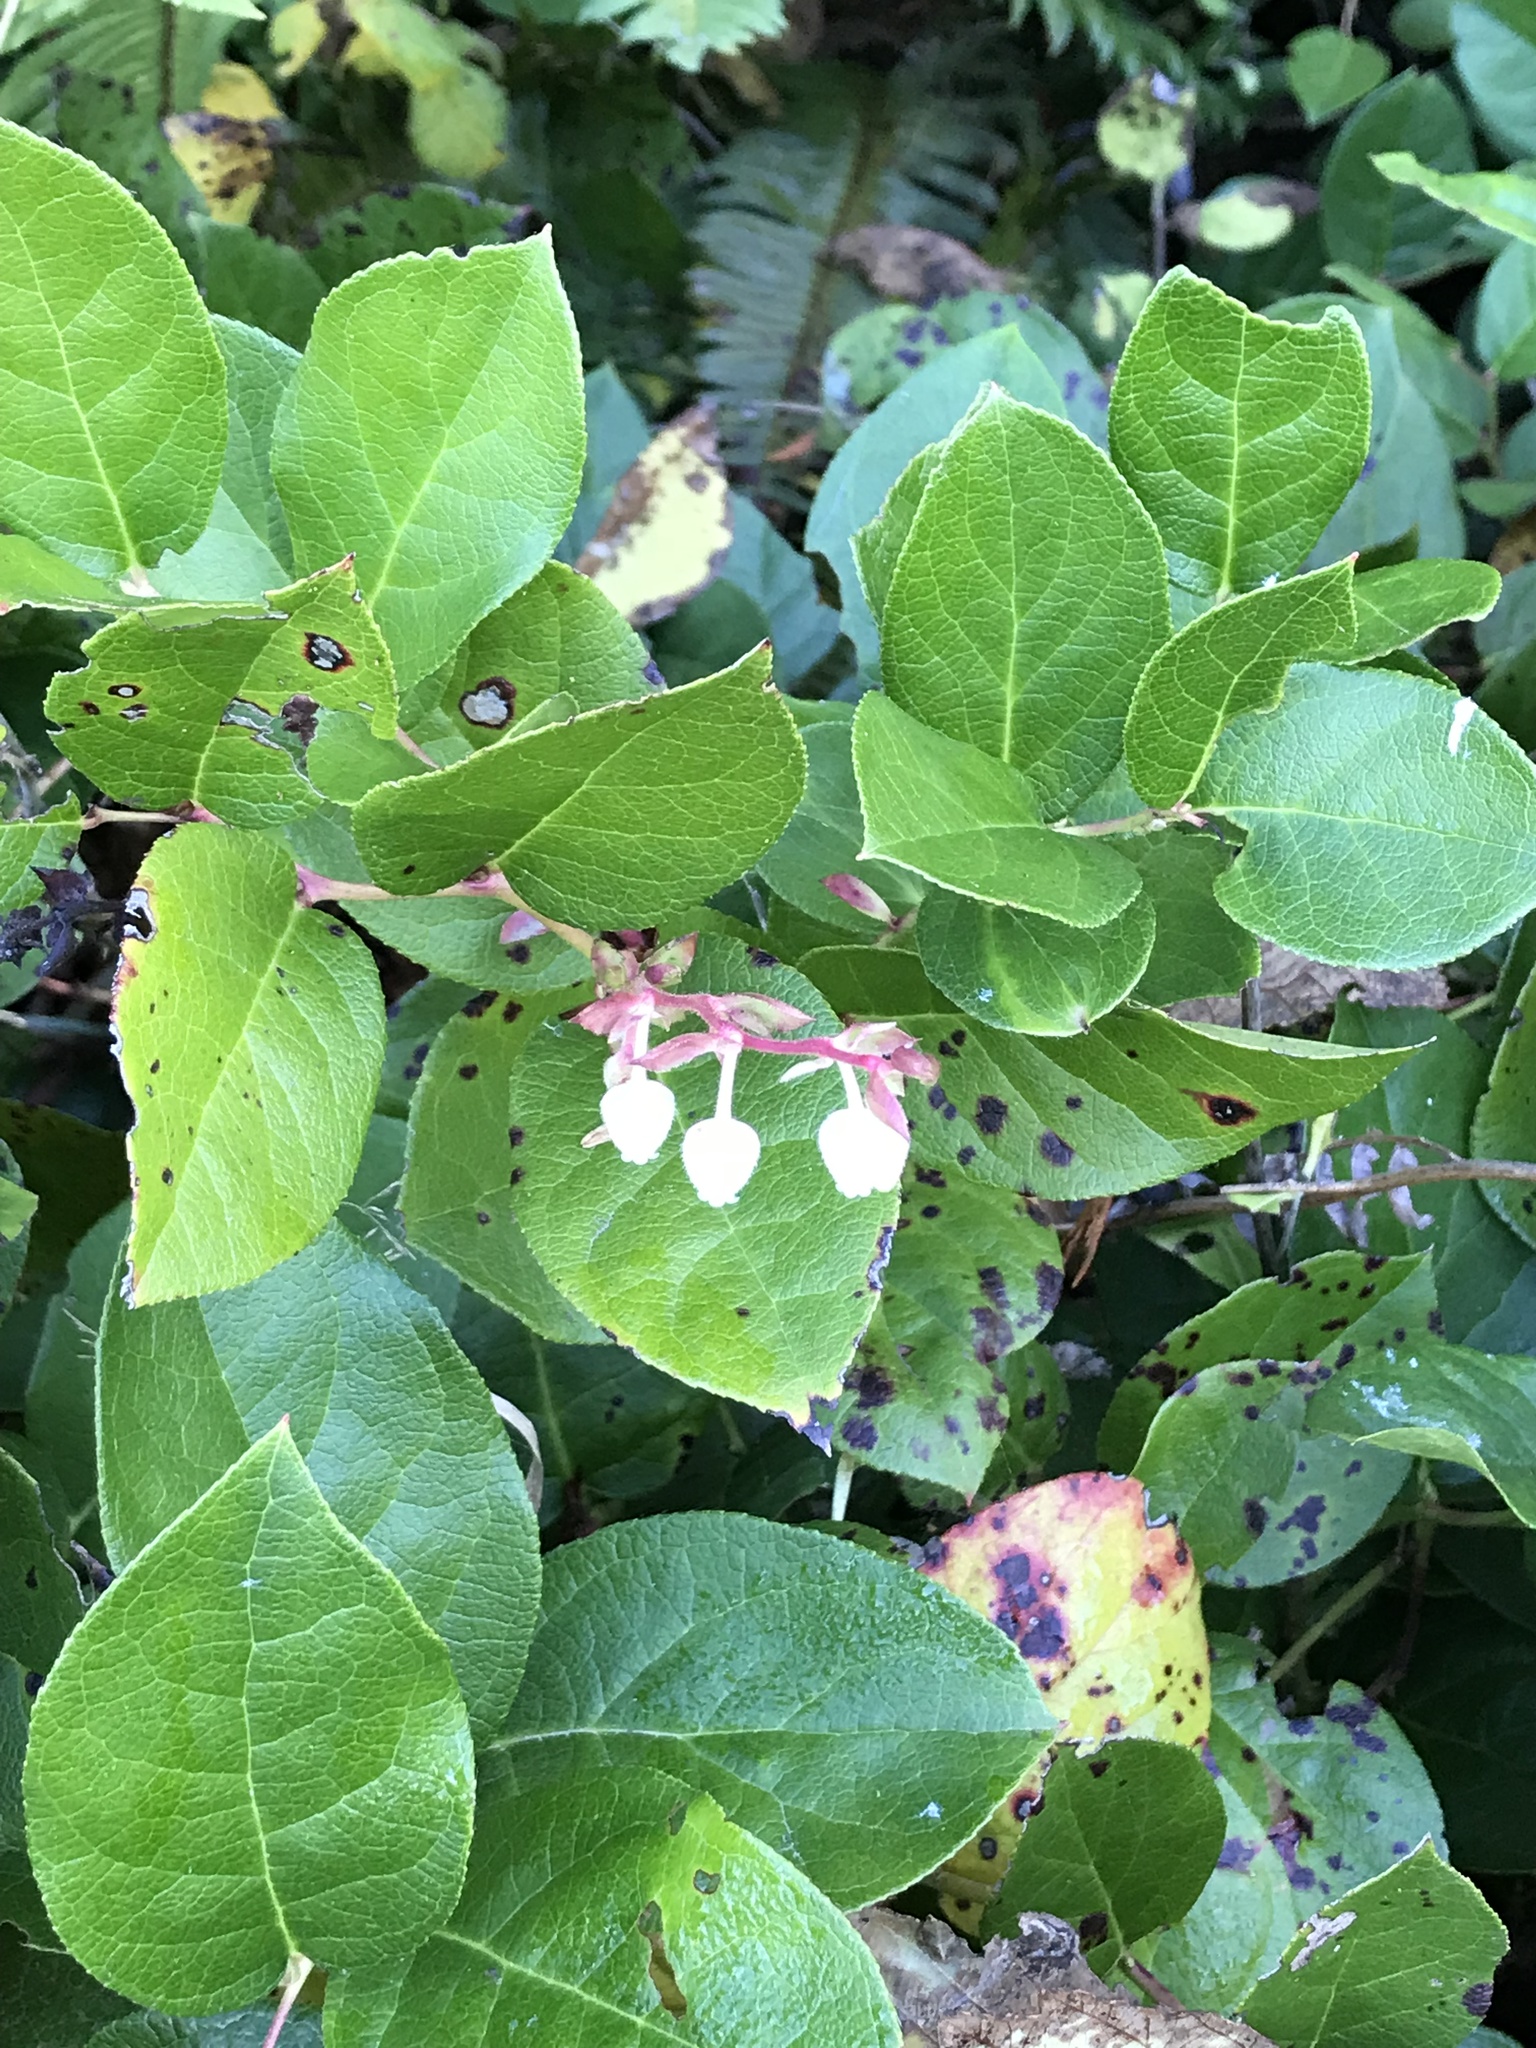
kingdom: Plantae
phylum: Tracheophyta
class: Magnoliopsida
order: Ericales
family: Ericaceae
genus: Gaultheria
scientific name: Gaultheria shallon
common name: Shallon
